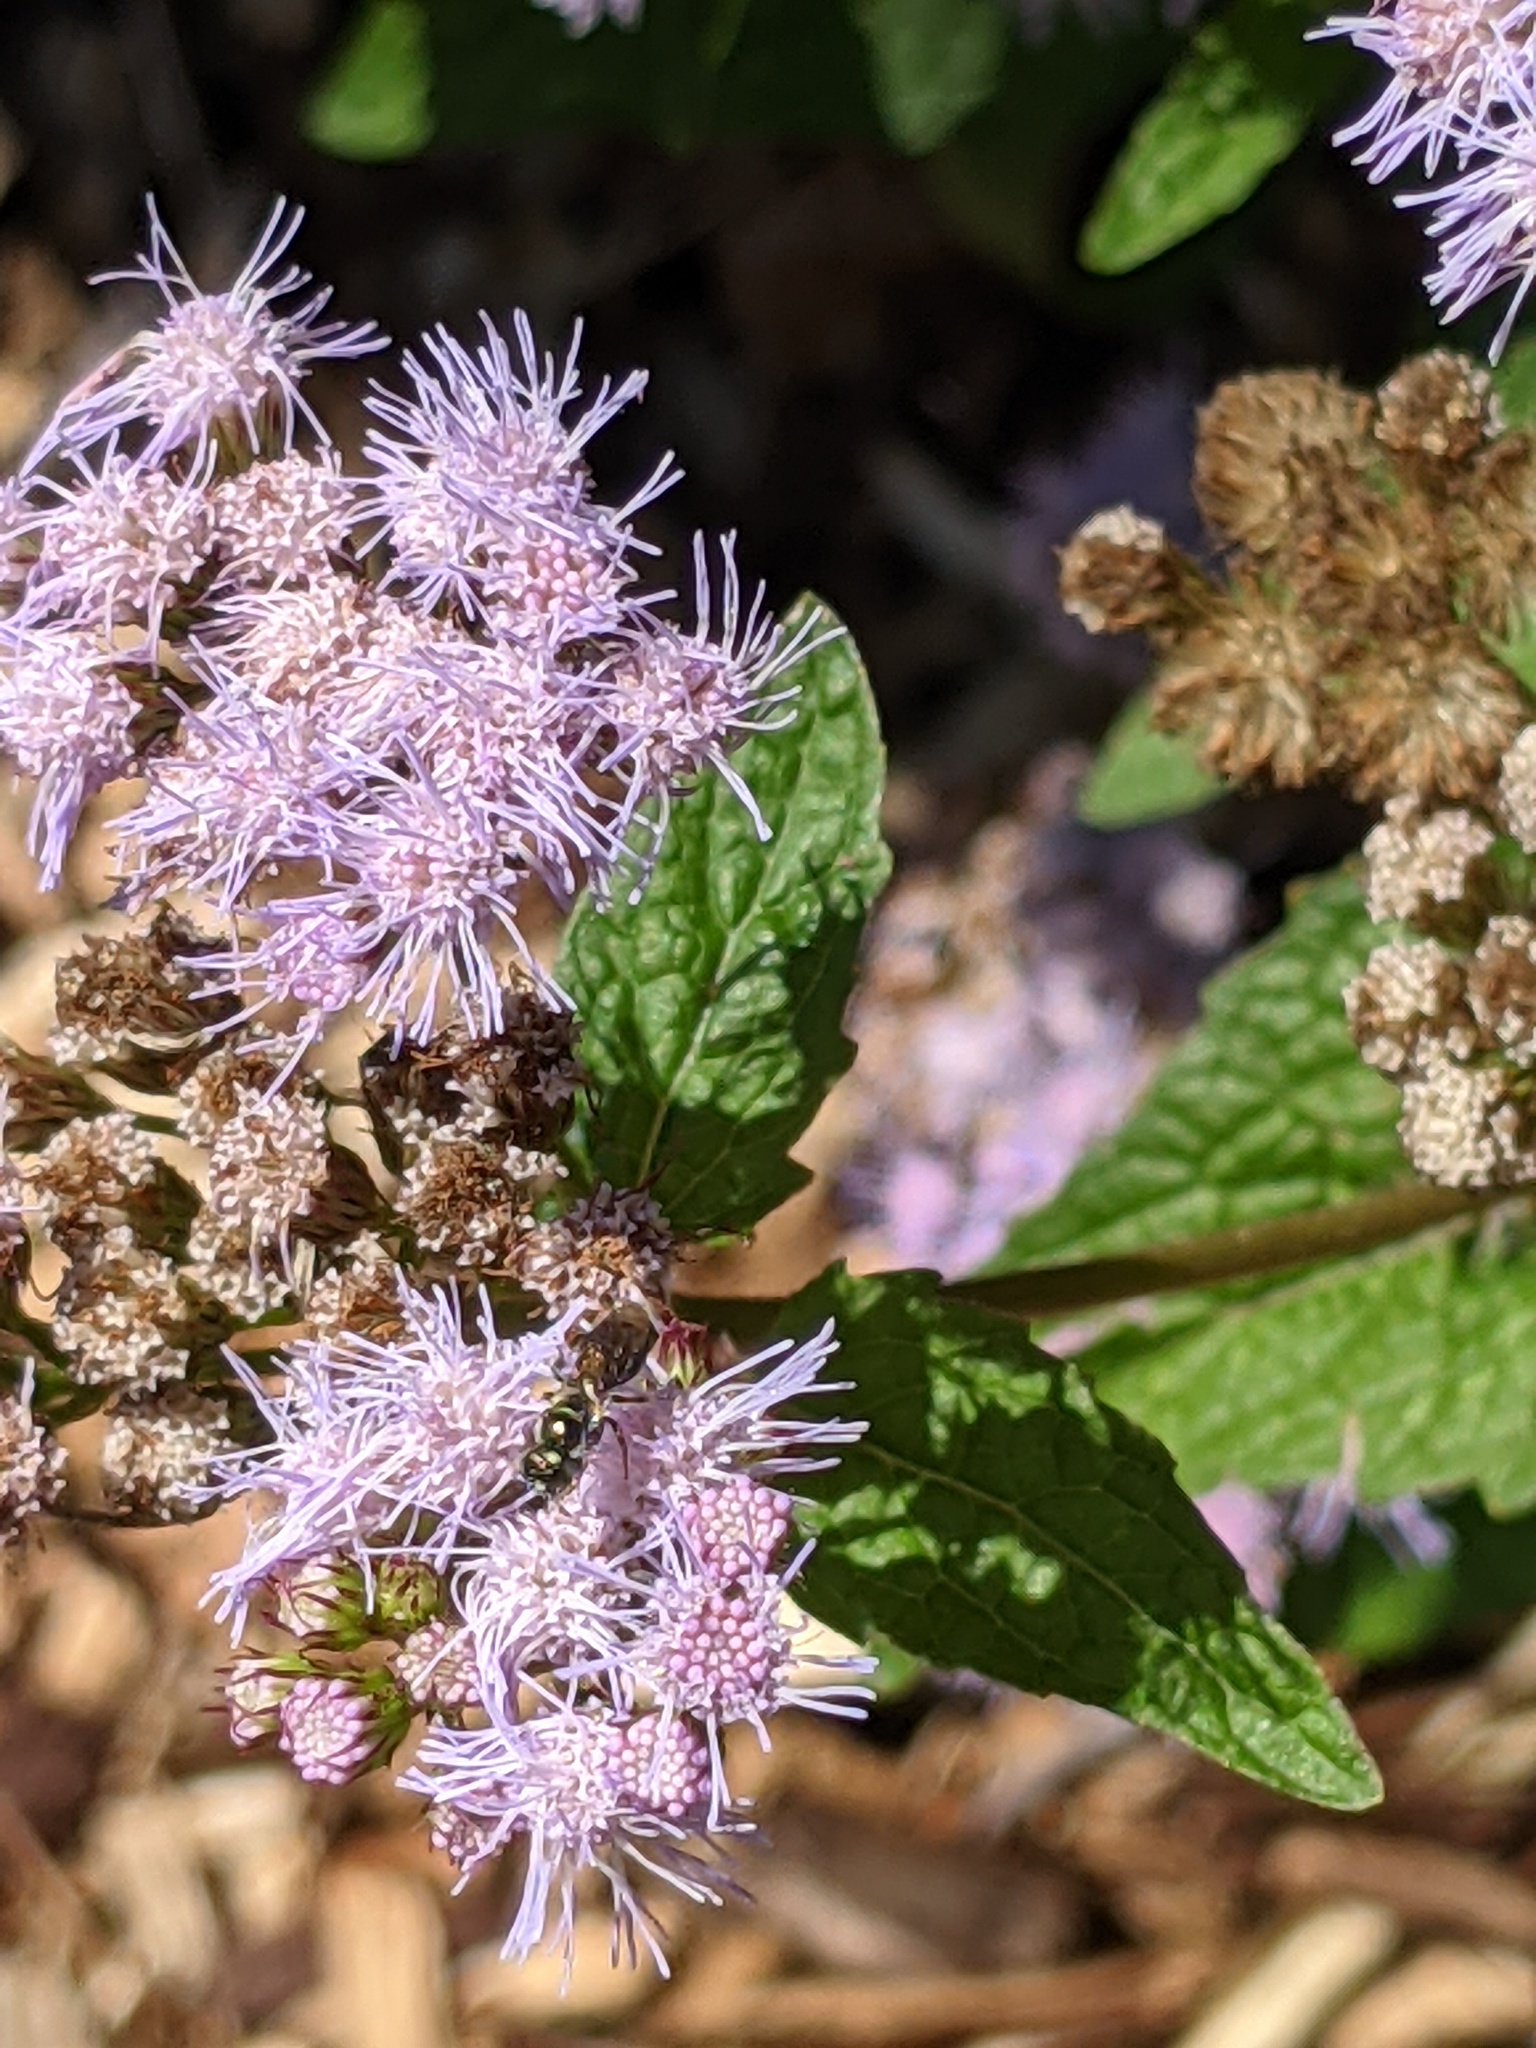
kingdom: Animalia
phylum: Arthropoda
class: Insecta
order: Hymenoptera
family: Apidae
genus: Zadontomerus
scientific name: Zadontomerus
